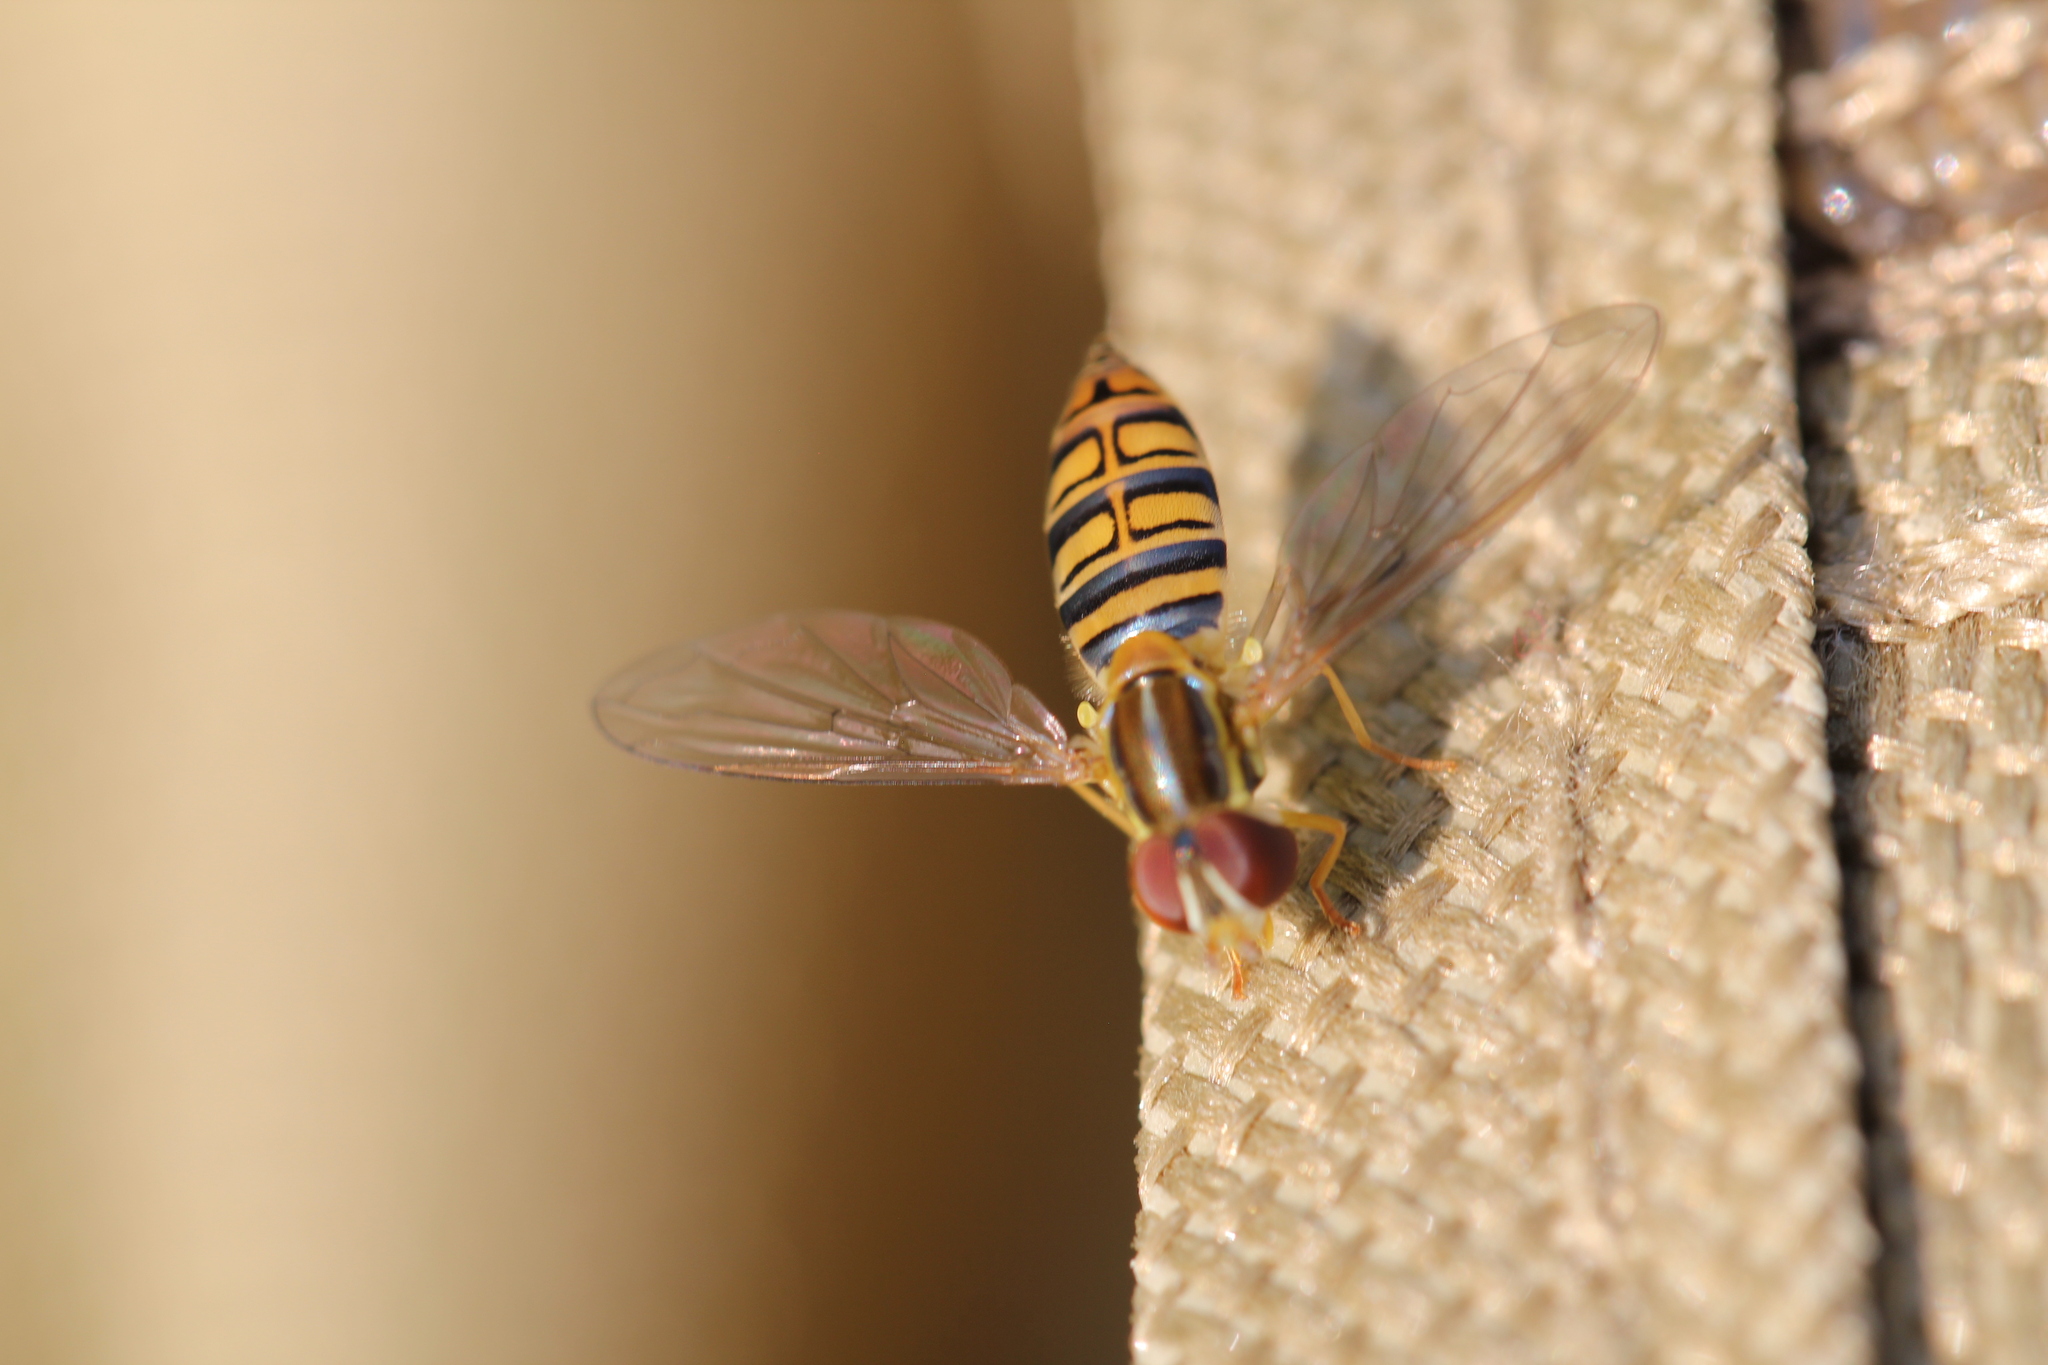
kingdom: Animalia
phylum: Arthropoda
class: Insecta
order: Diptera
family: Syrphidae
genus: Toxomerus
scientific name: Toxomerus politus
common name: Maize calligrapher
